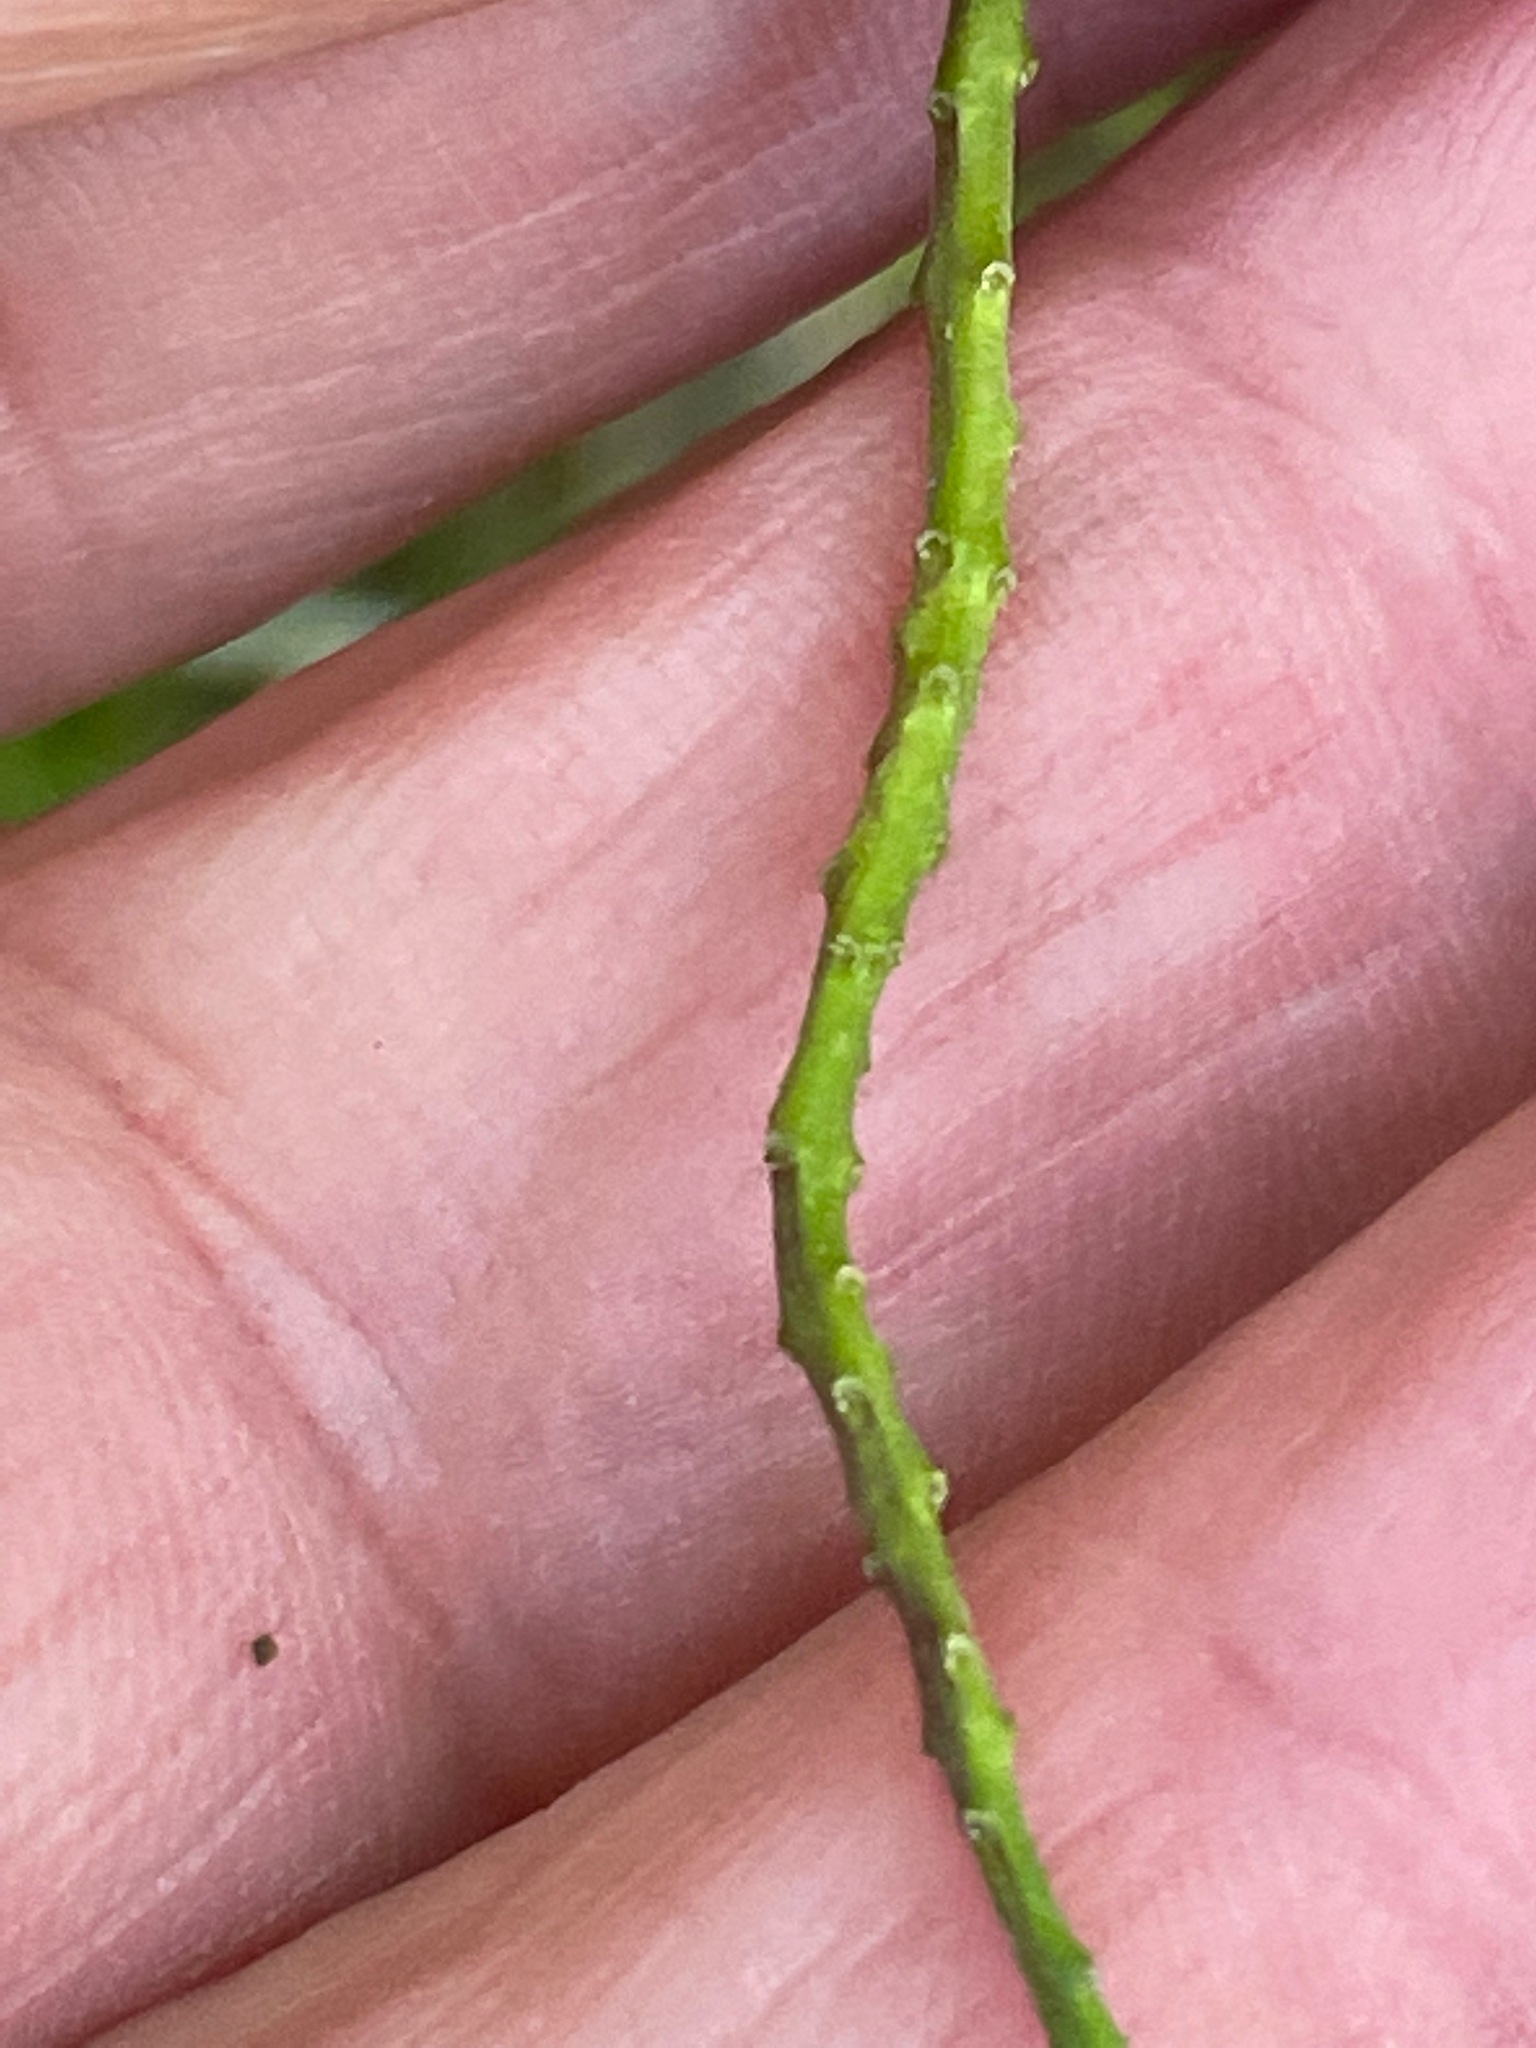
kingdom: Plantae
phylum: Tracheophyta
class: Magnoliopsida
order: Fabales
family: Polygalaceae
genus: Polygala
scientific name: Polygala senega
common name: Seneca snakeroot
